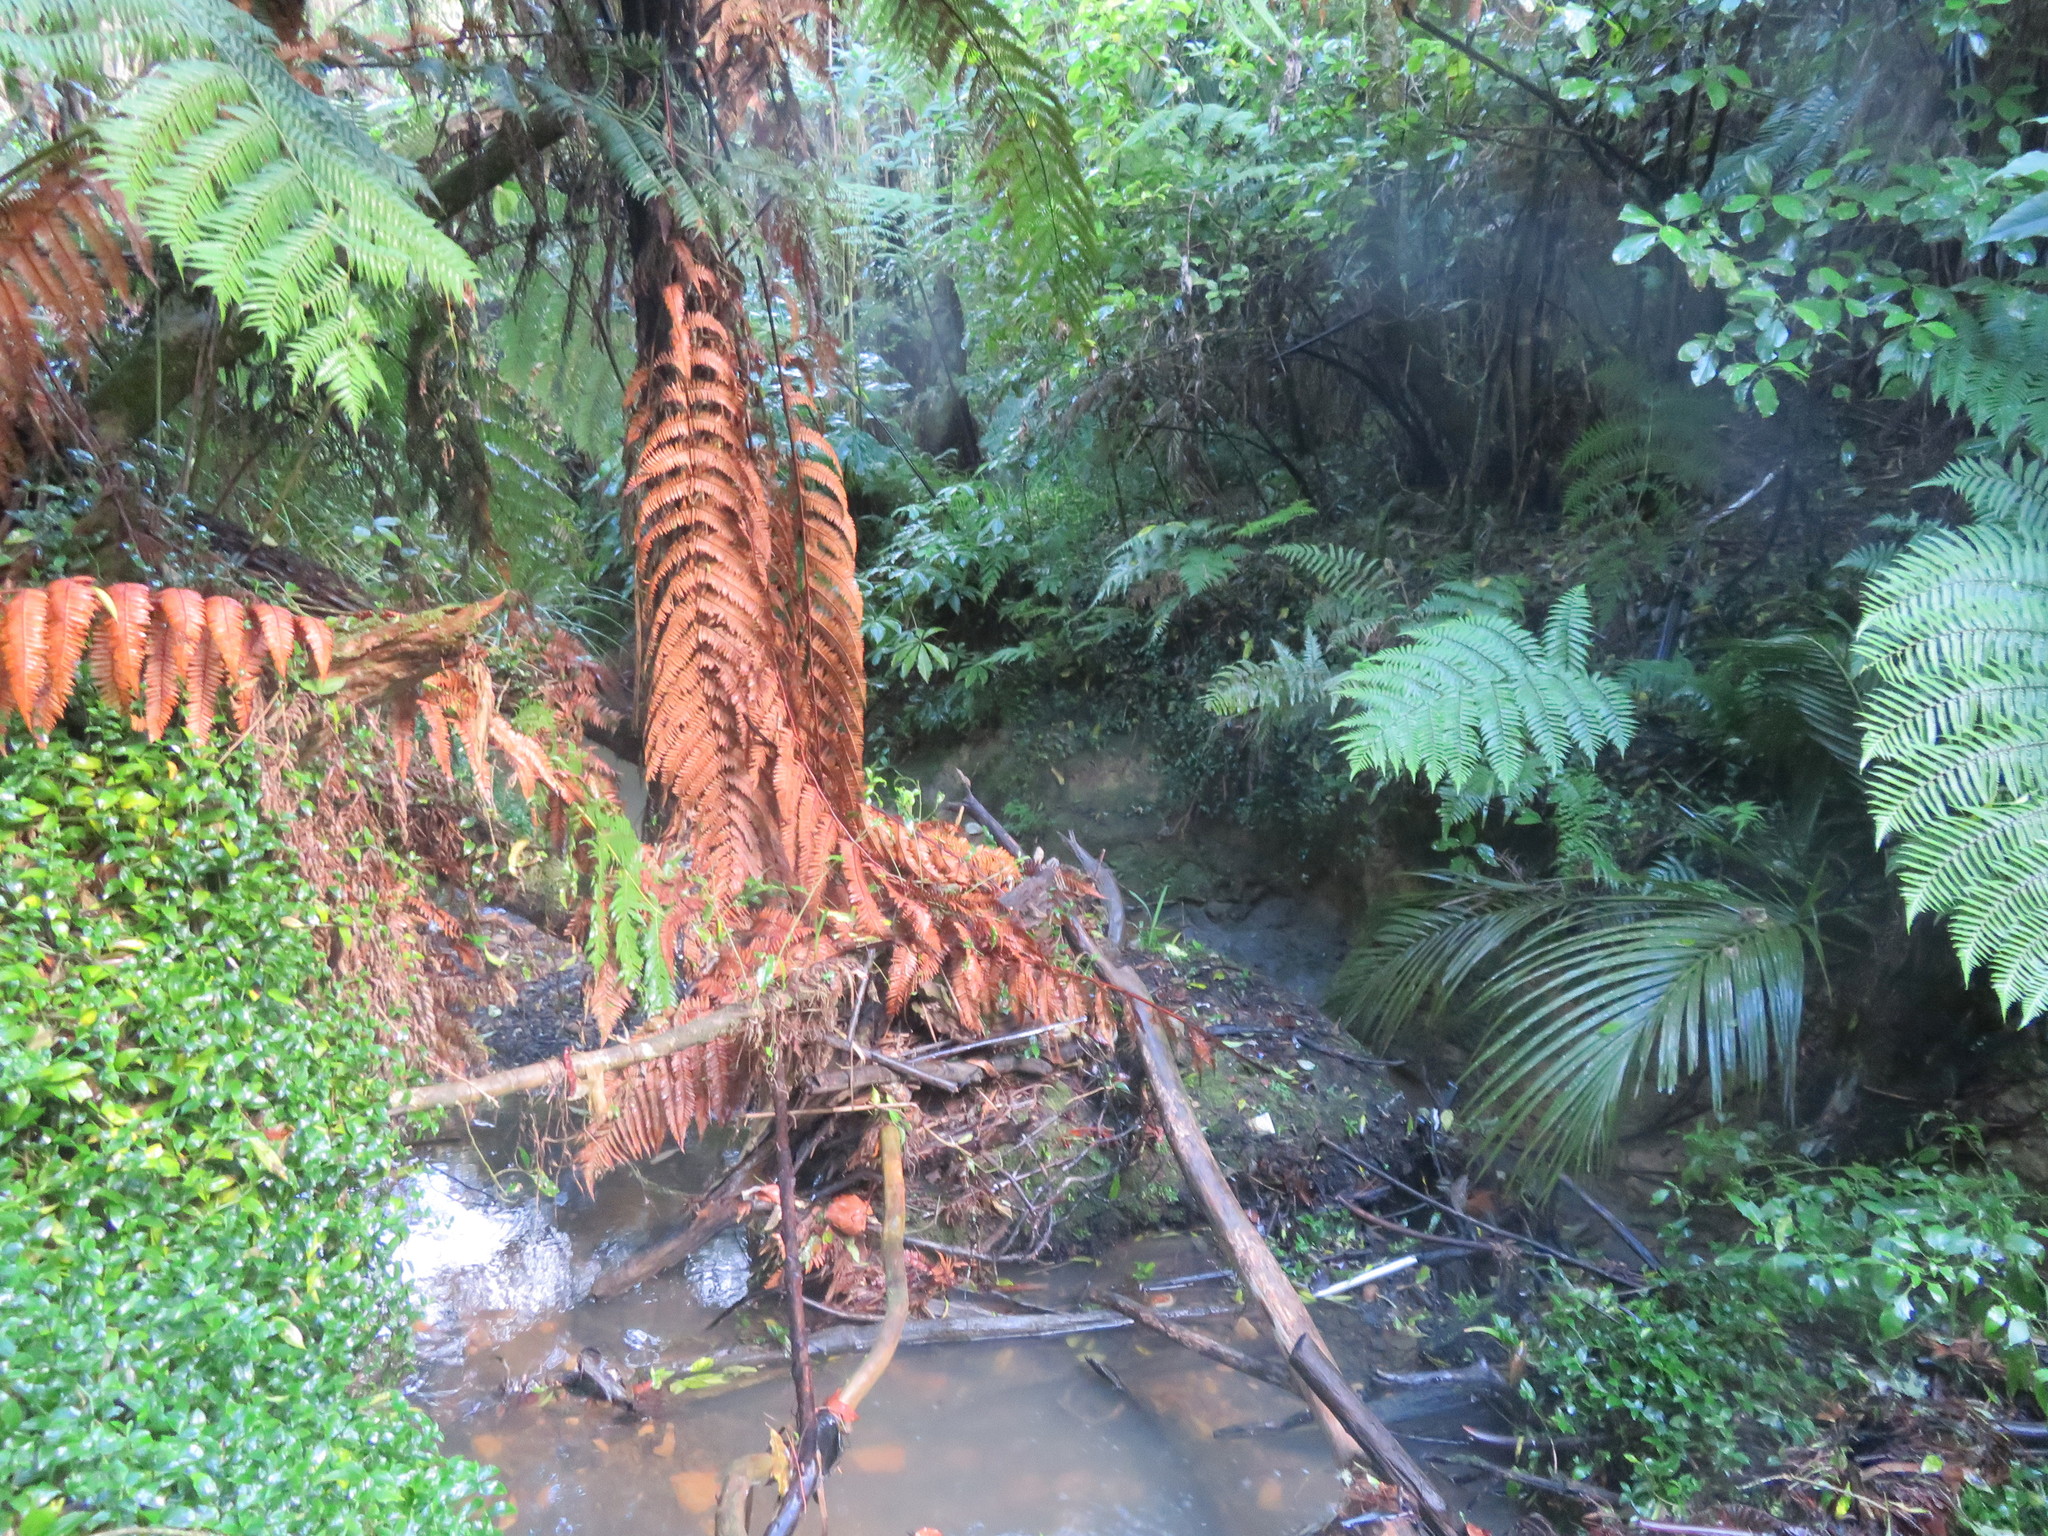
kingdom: Plantae
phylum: Tracheophyta
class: Liliopsida
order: Commelinales
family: Commelinaceae
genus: Tradescantia
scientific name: Tradescantia fluminensis
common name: Wandering-jew
